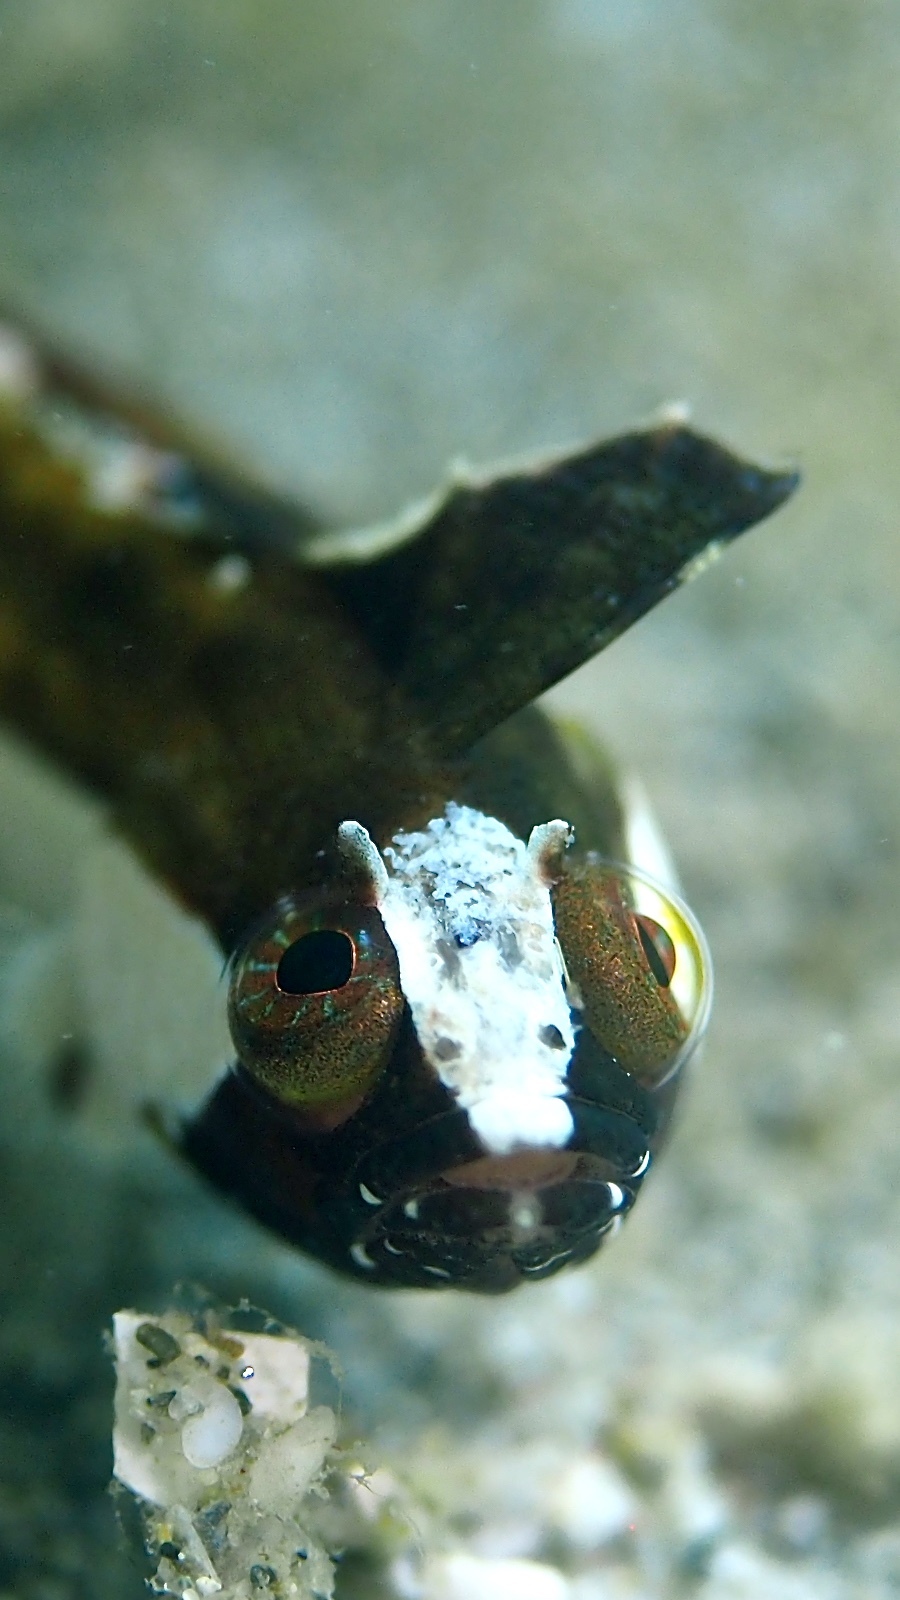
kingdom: Animalia
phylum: Chordata
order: Perciformes
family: Clinidae
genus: Heteroclinus
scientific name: Heteroclinus kuiteri
